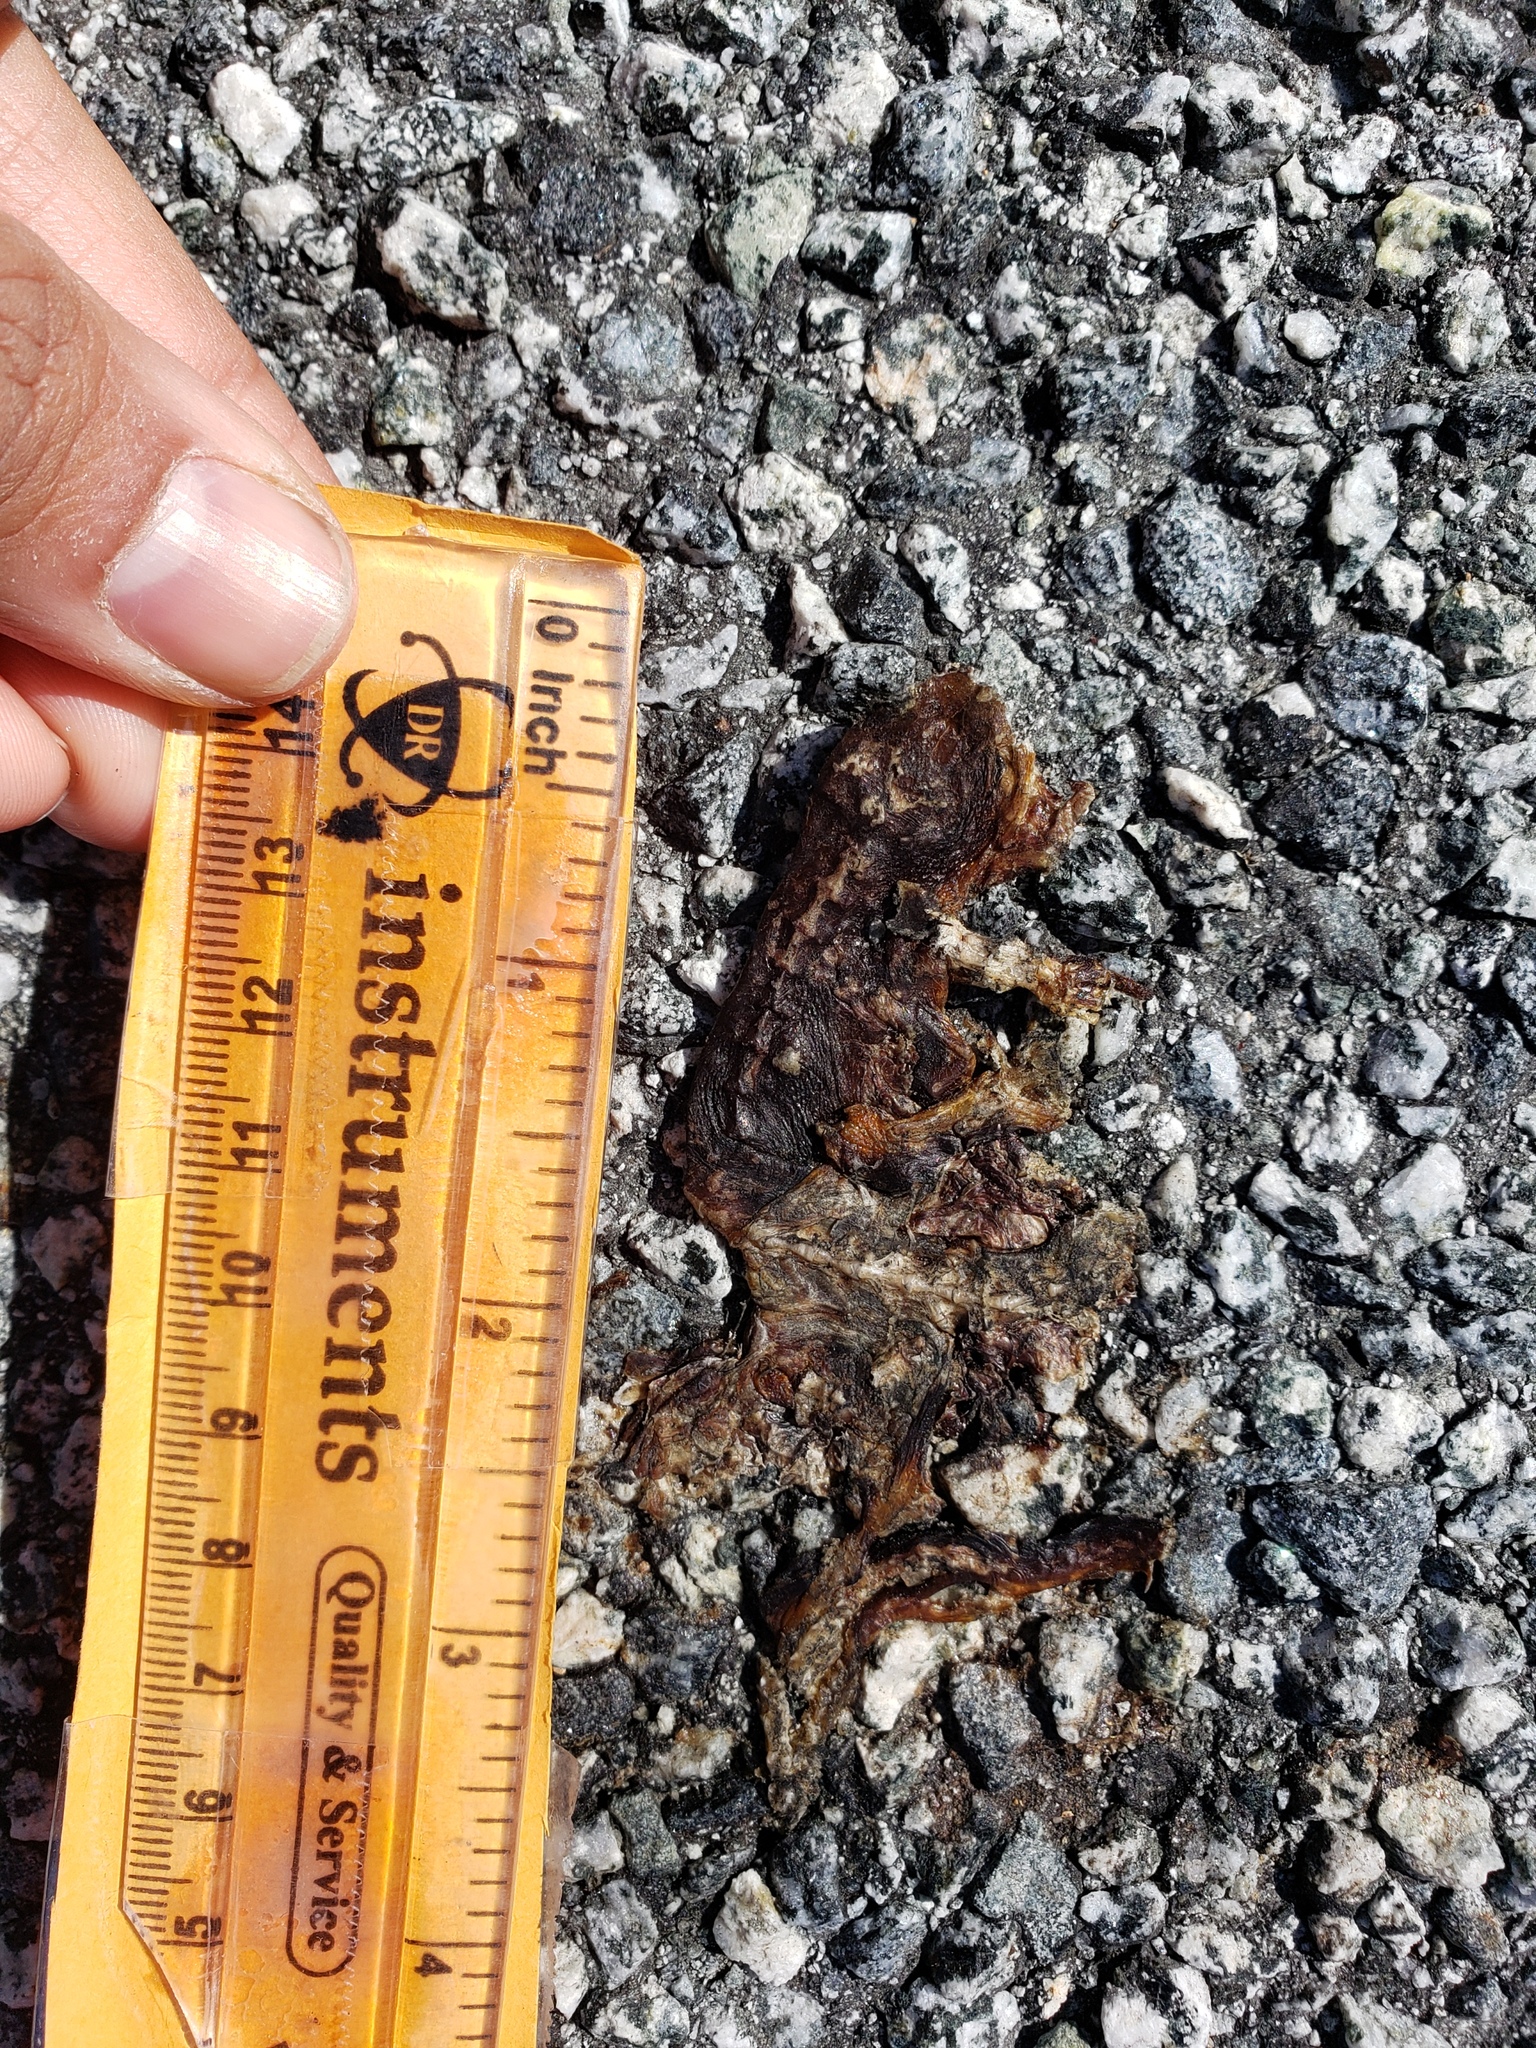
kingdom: Animalia
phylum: Chordata
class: Amphibia
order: Caudata
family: Salamandridae
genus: Taricha
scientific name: Taricha
